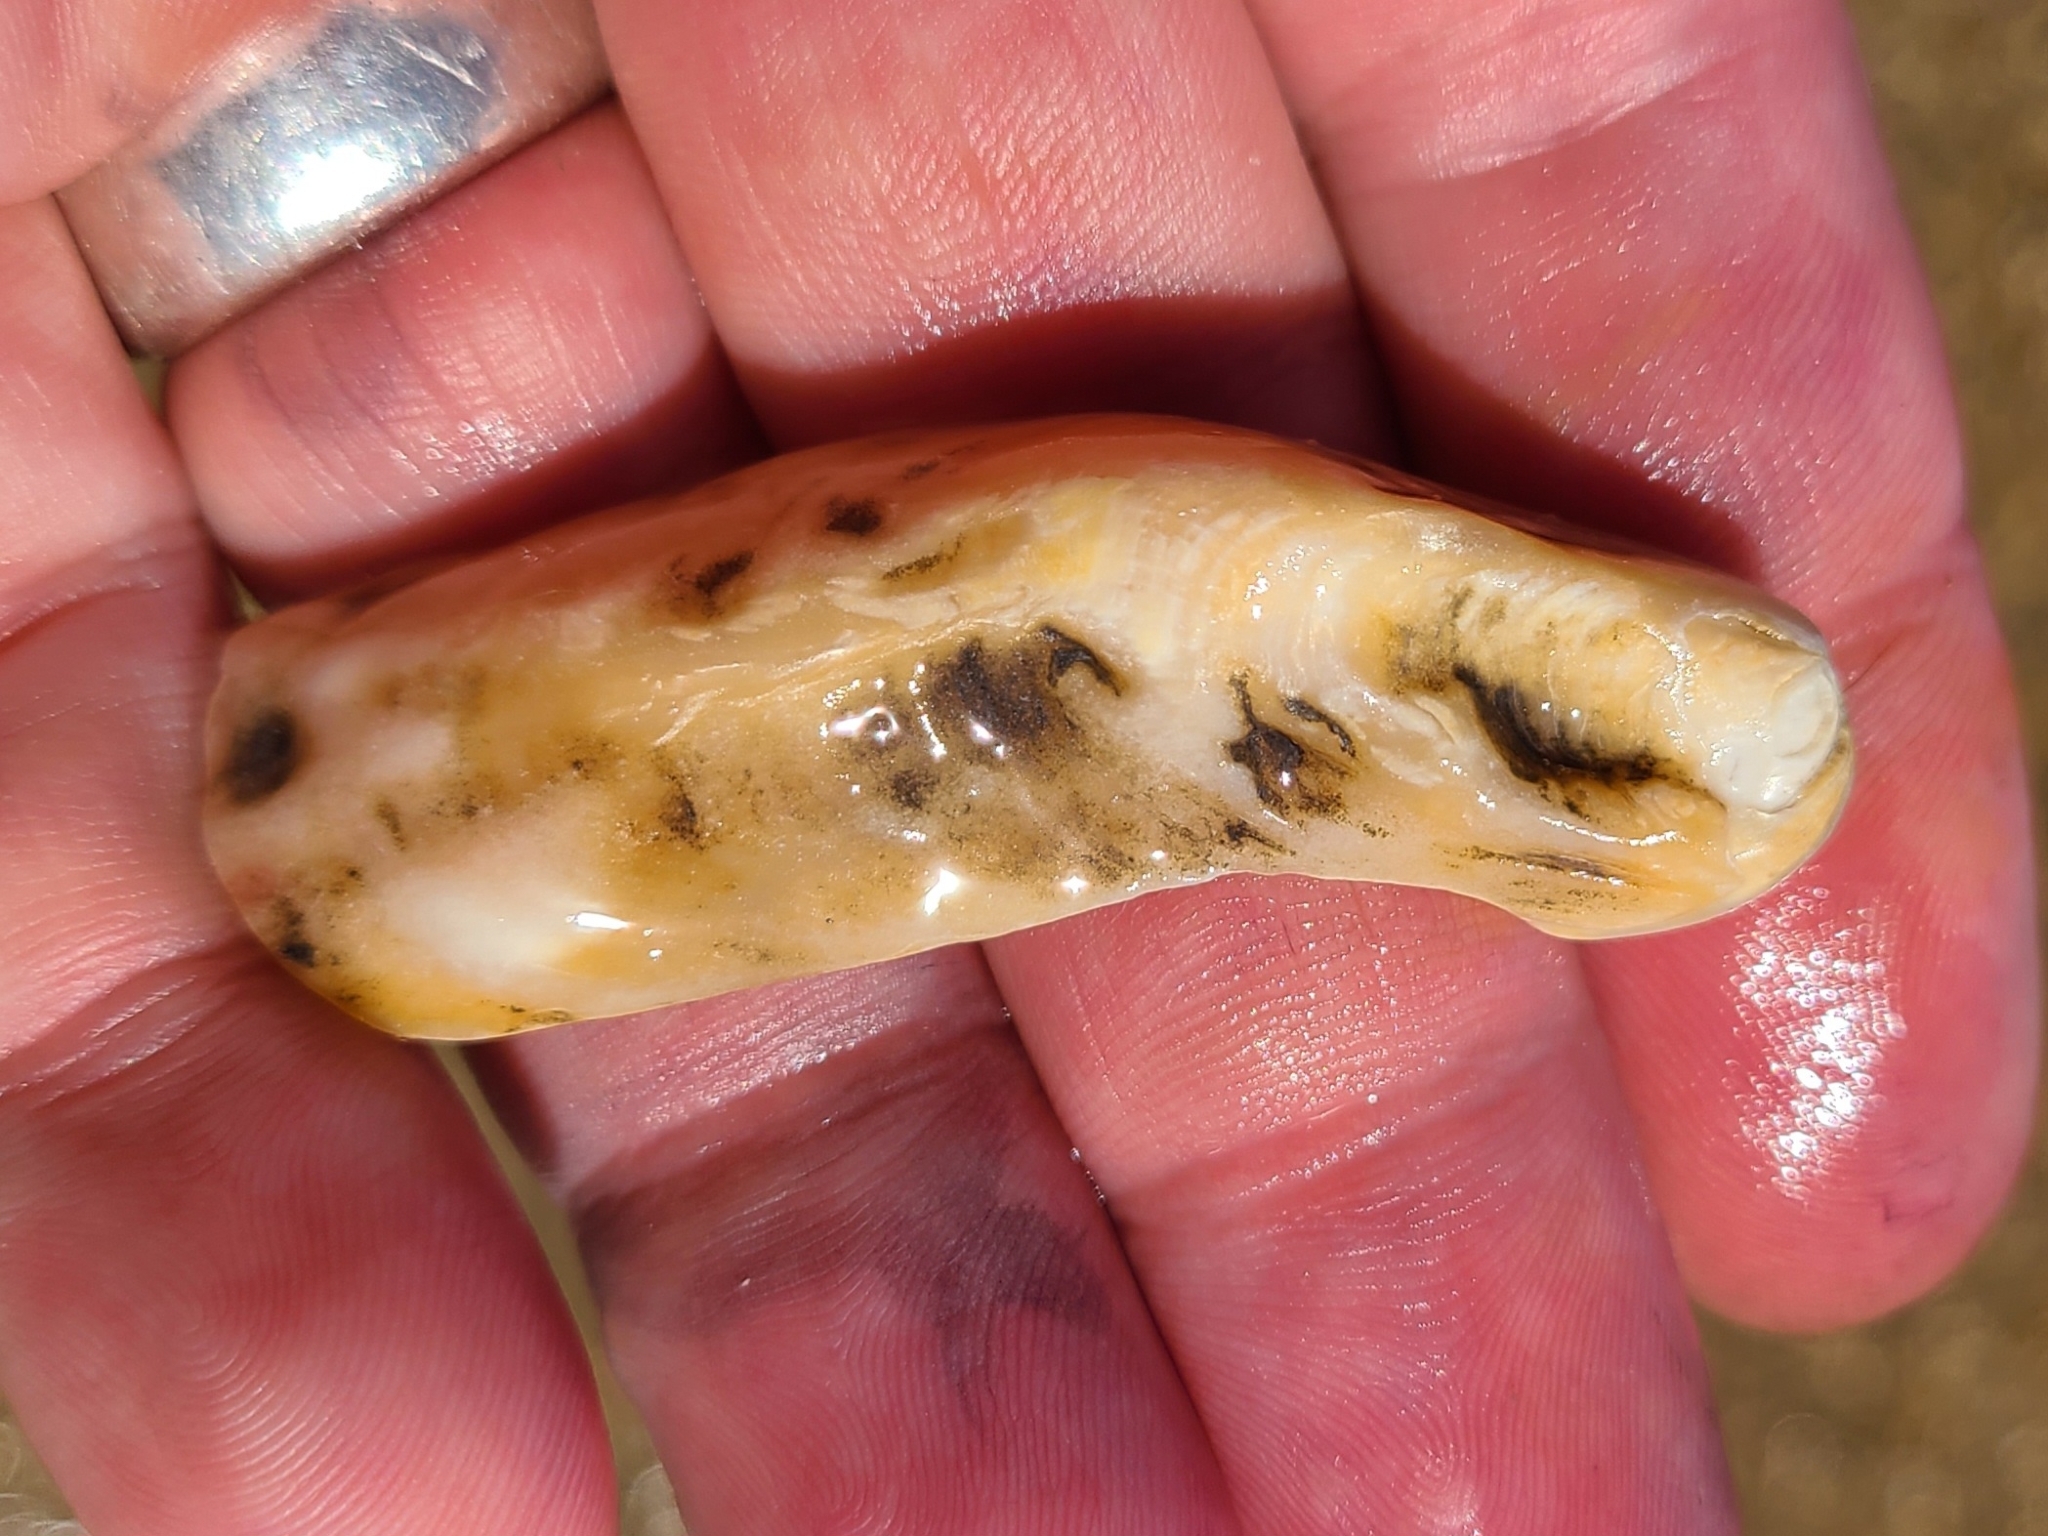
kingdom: Animalia
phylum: Mollusca
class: Bivalvia
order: Ostreida
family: Ostreidae
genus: Crassostrea
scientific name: Crassostrea virginica
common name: American oyster
